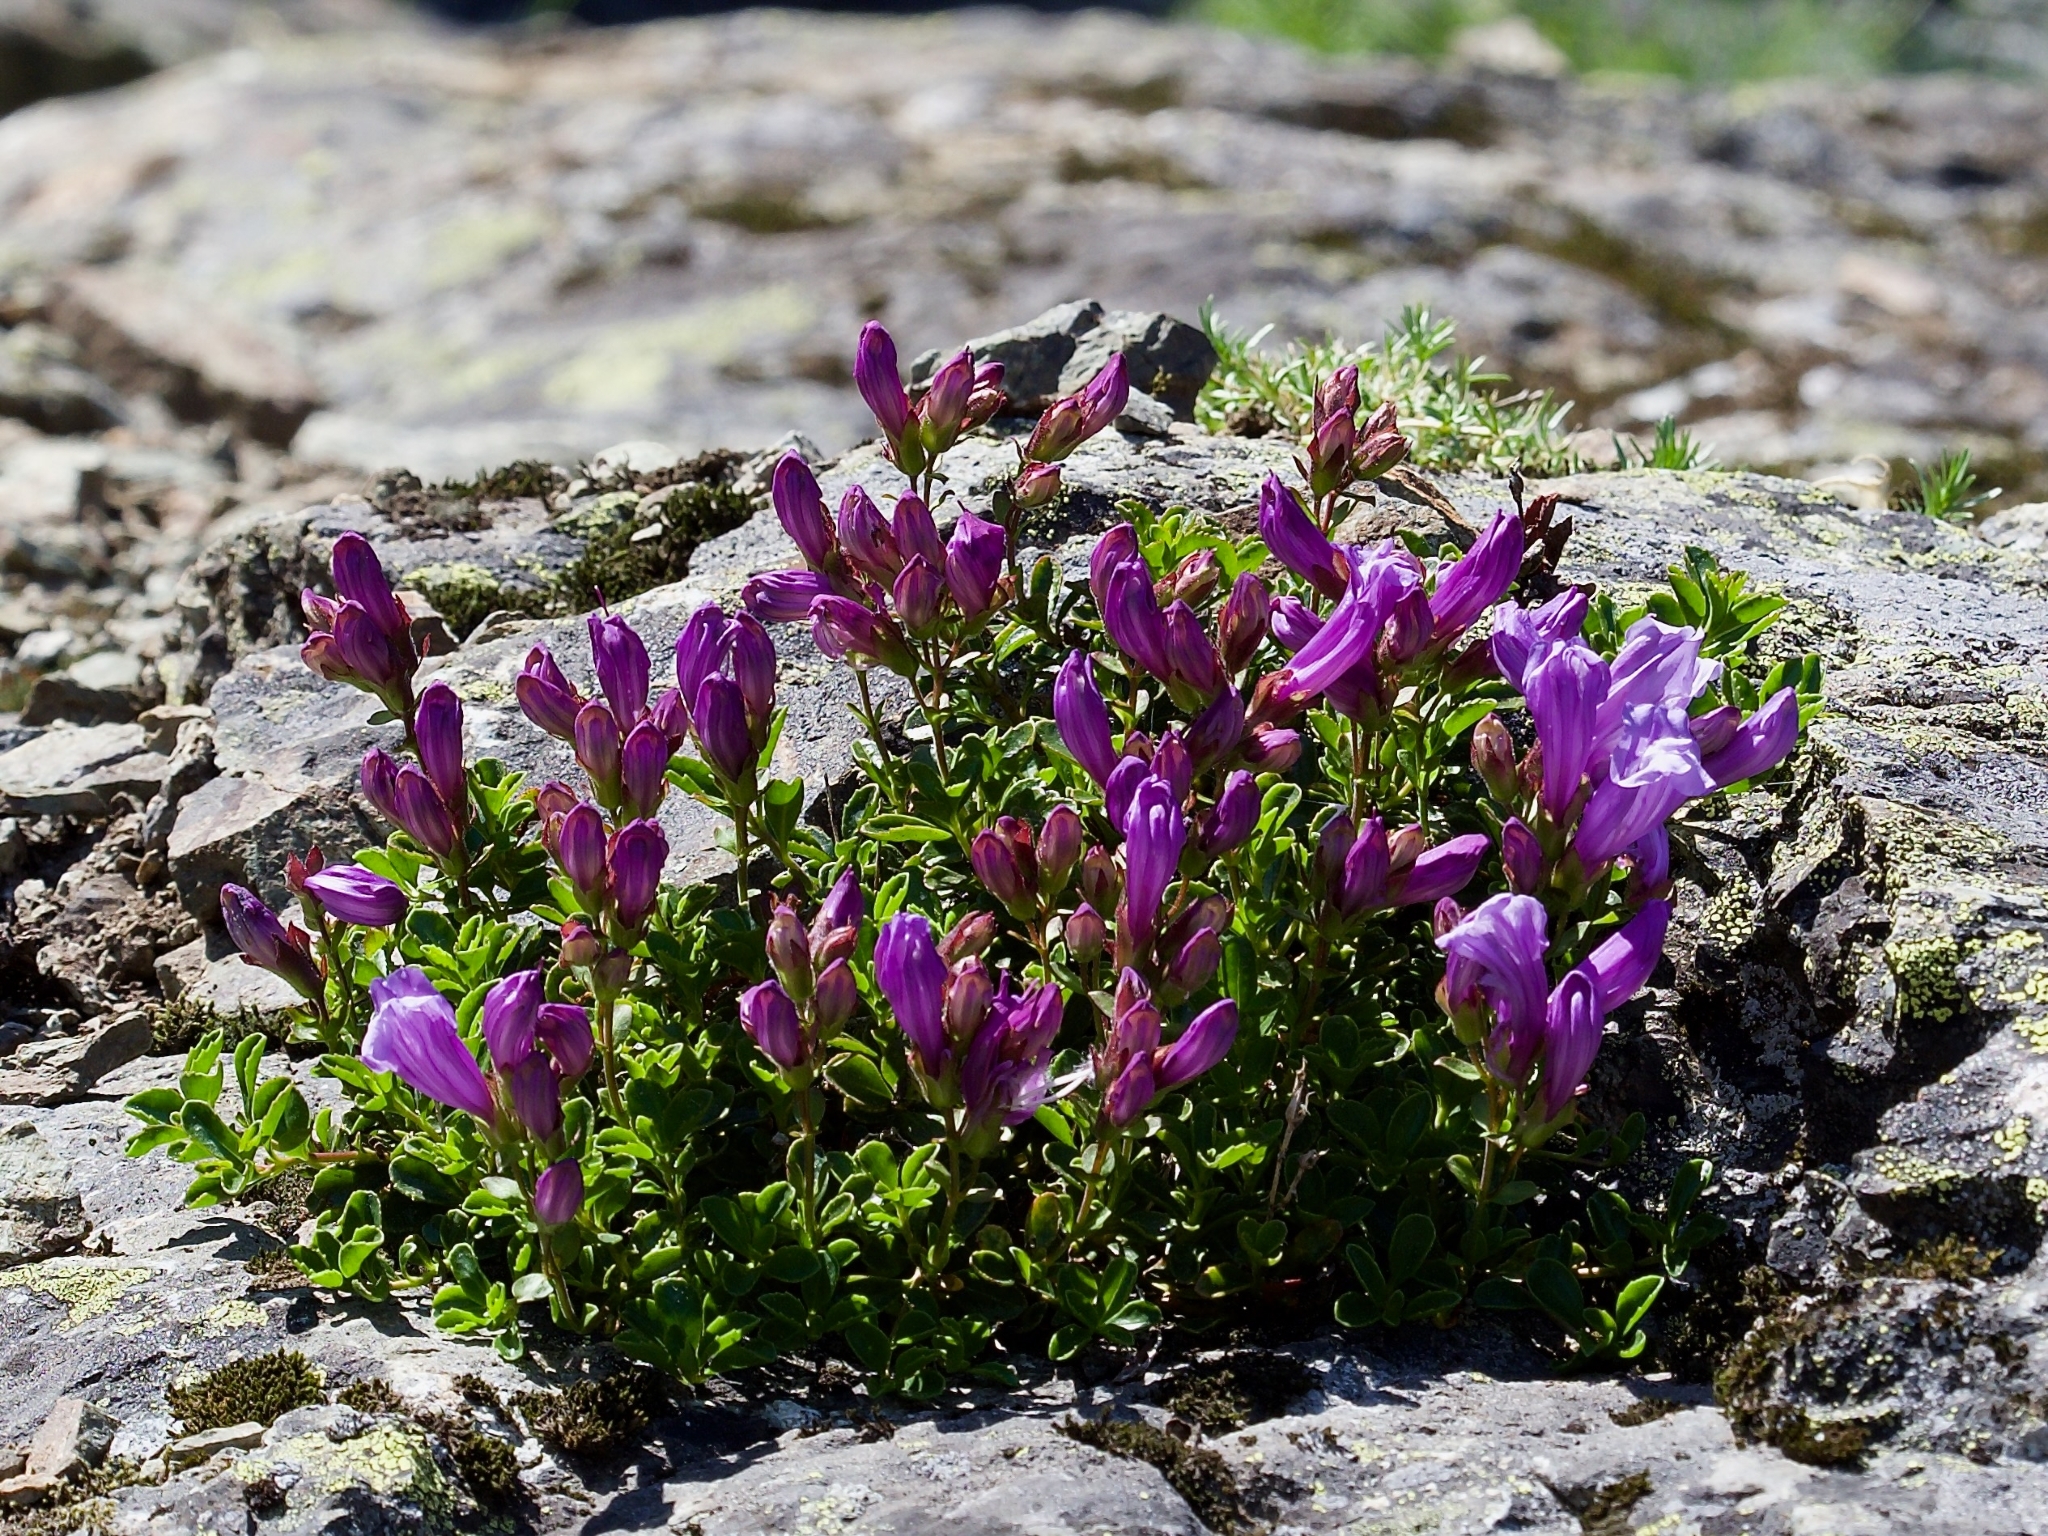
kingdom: Plantae
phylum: Tracheophyta
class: Magnoliopsida
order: Lamiales
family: Plantaginaceae
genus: Penstemon
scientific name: Penstemon davidsonii
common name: Davidson's penstemon
